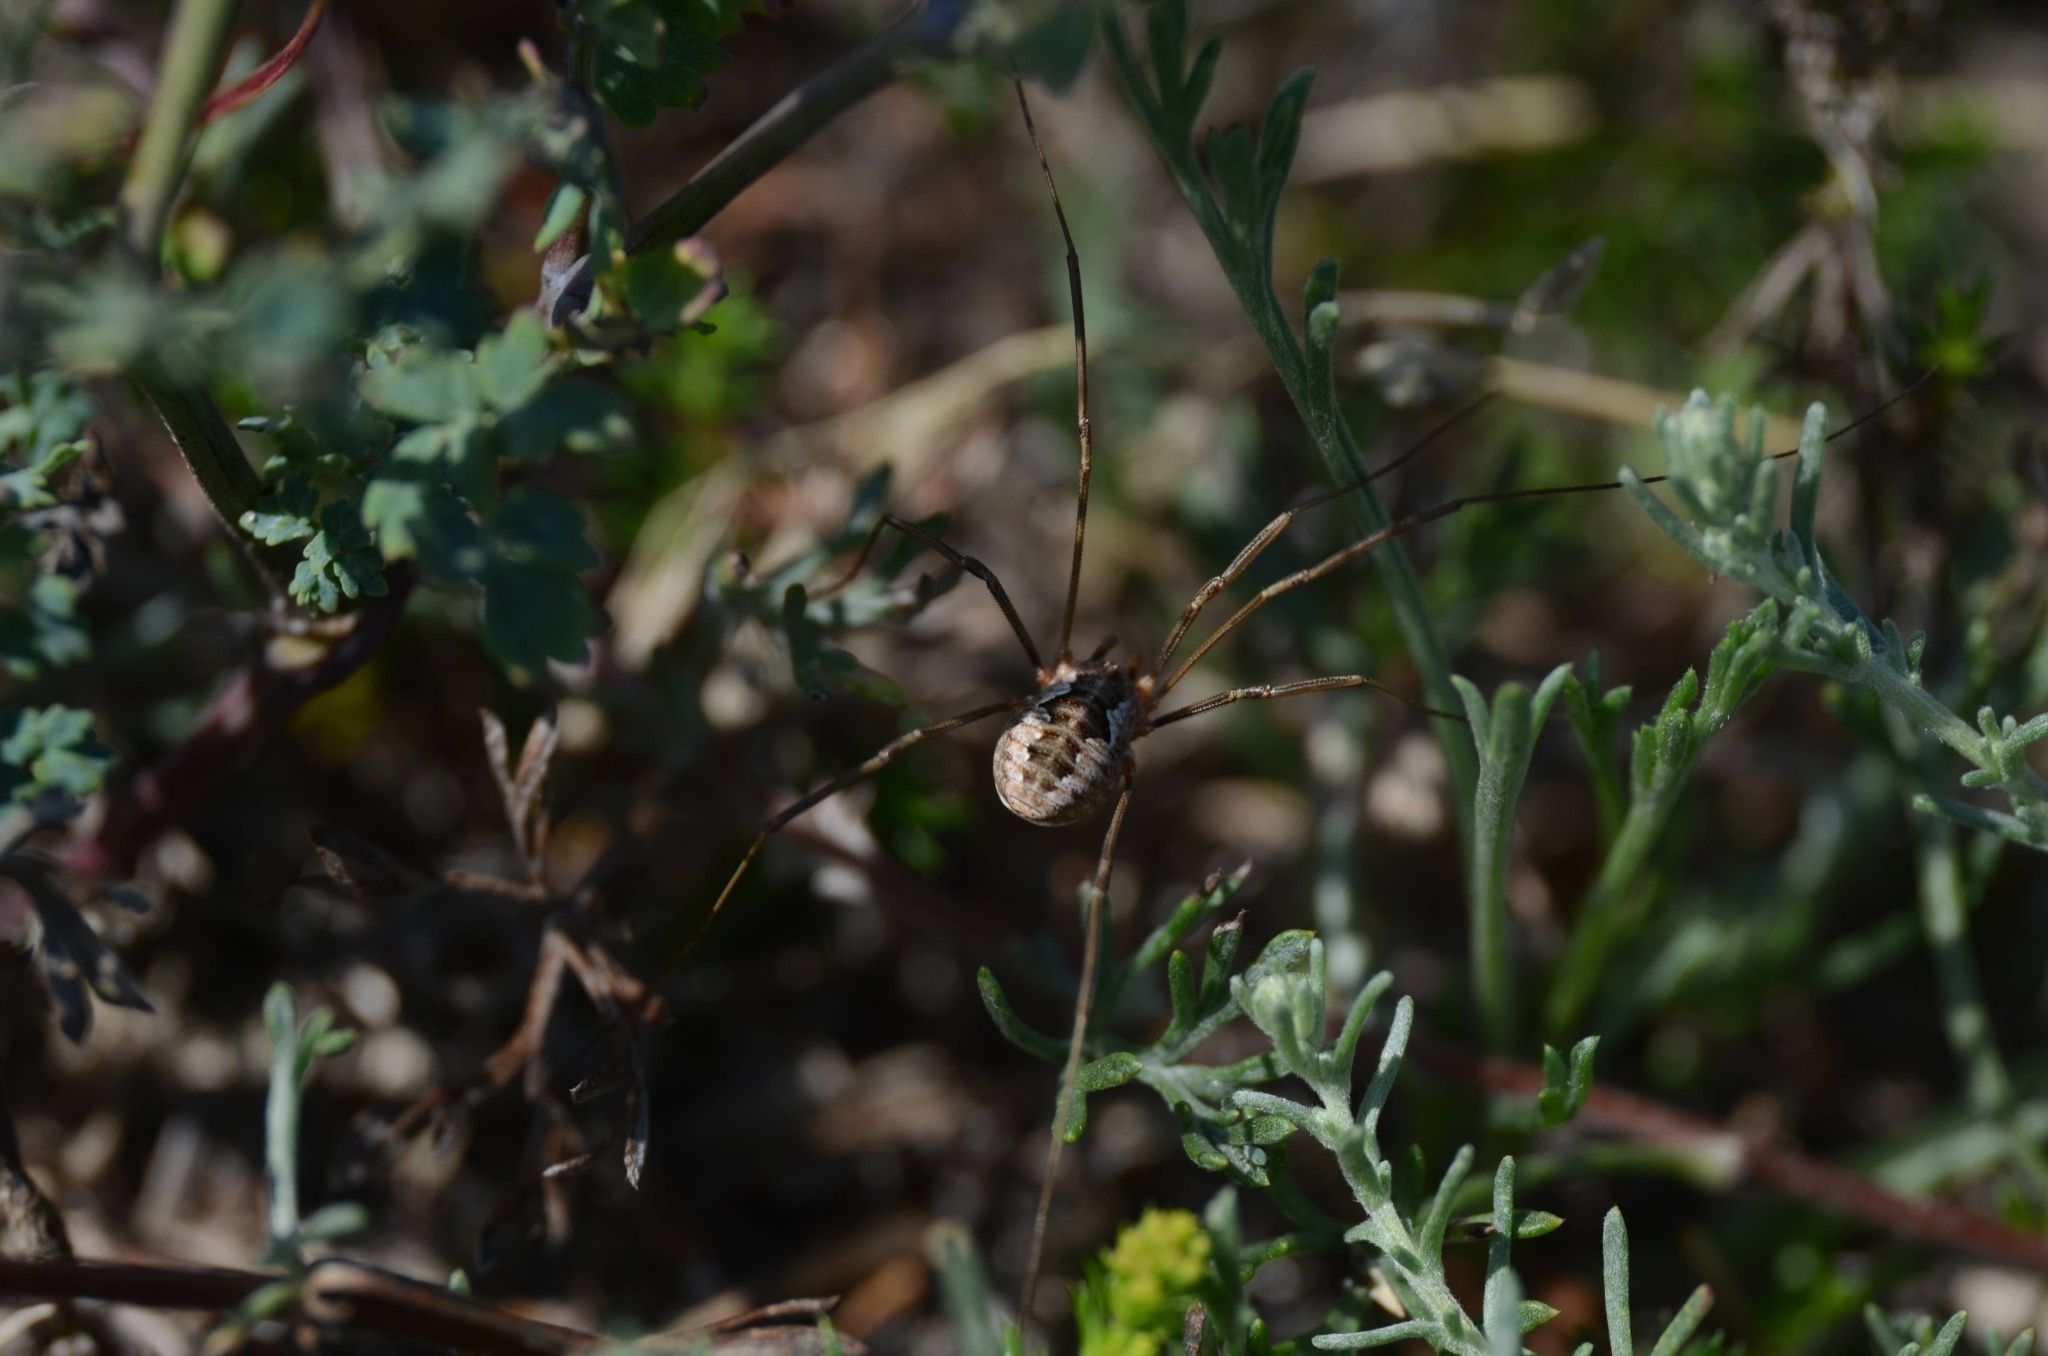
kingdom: Animalia
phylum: Arthropoda
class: Arachnida
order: Opiliones
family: Phalangiidae
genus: Phalangium
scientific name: Phalangium opilio
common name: Daddy longleg
